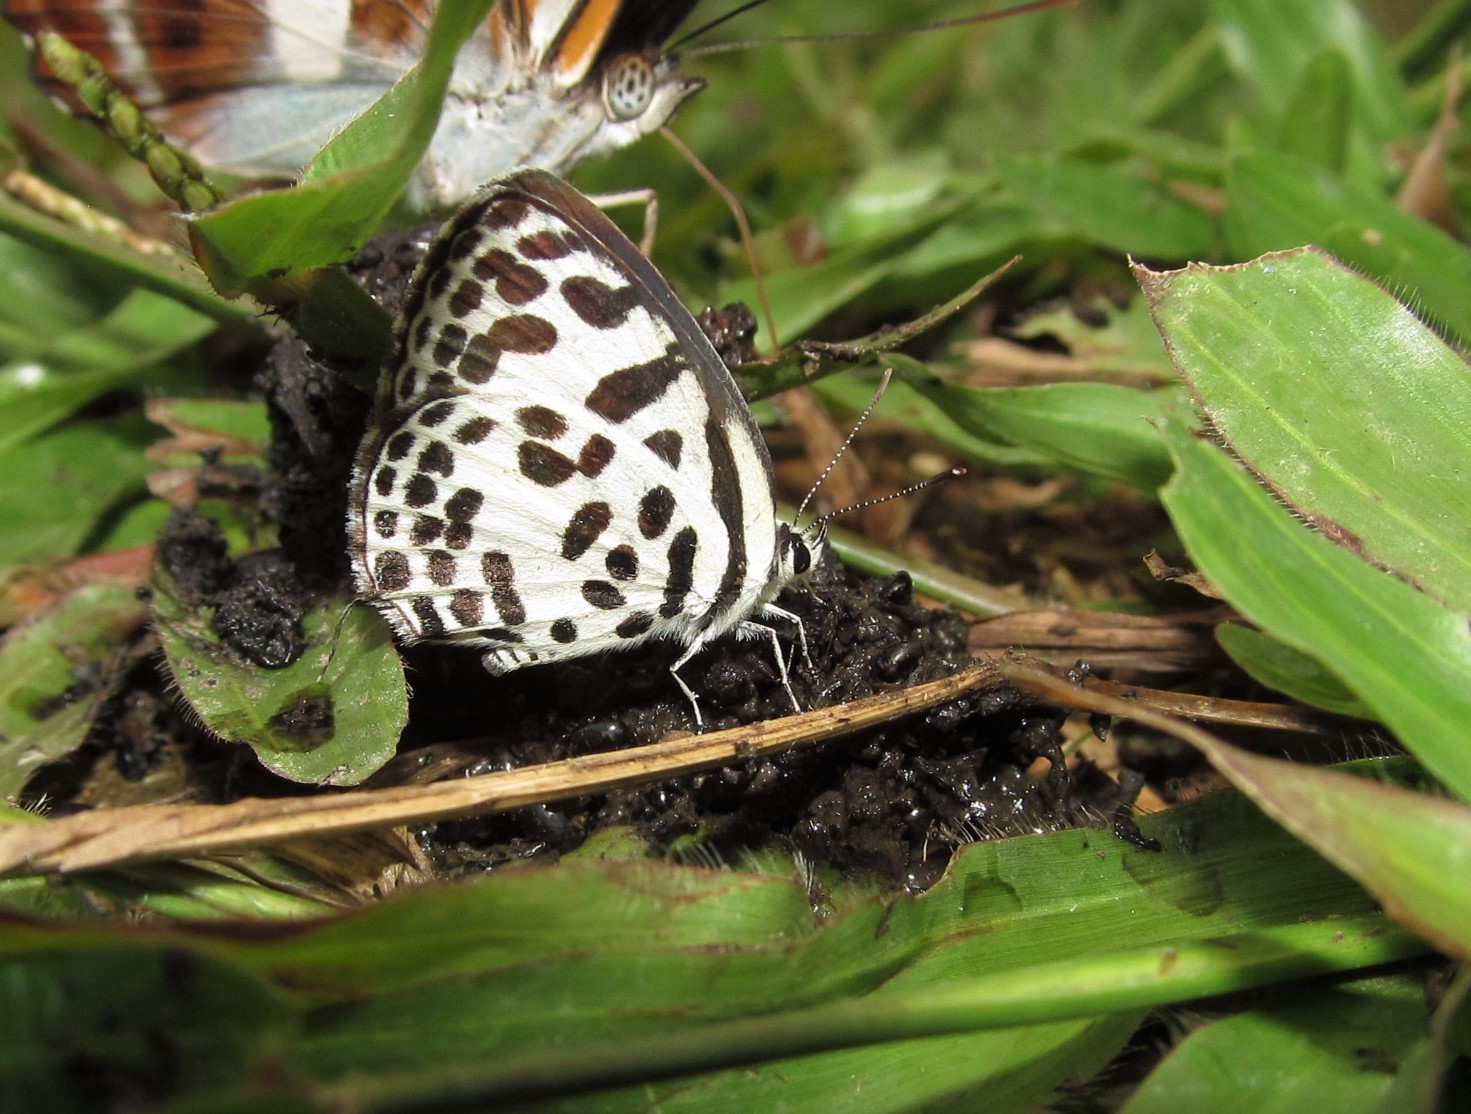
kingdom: Animalia
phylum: Arthropoda
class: Insecta
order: Lepidoptera
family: Lycaenidae
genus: Castalius
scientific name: Castalius rosimon
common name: Common pierrot
